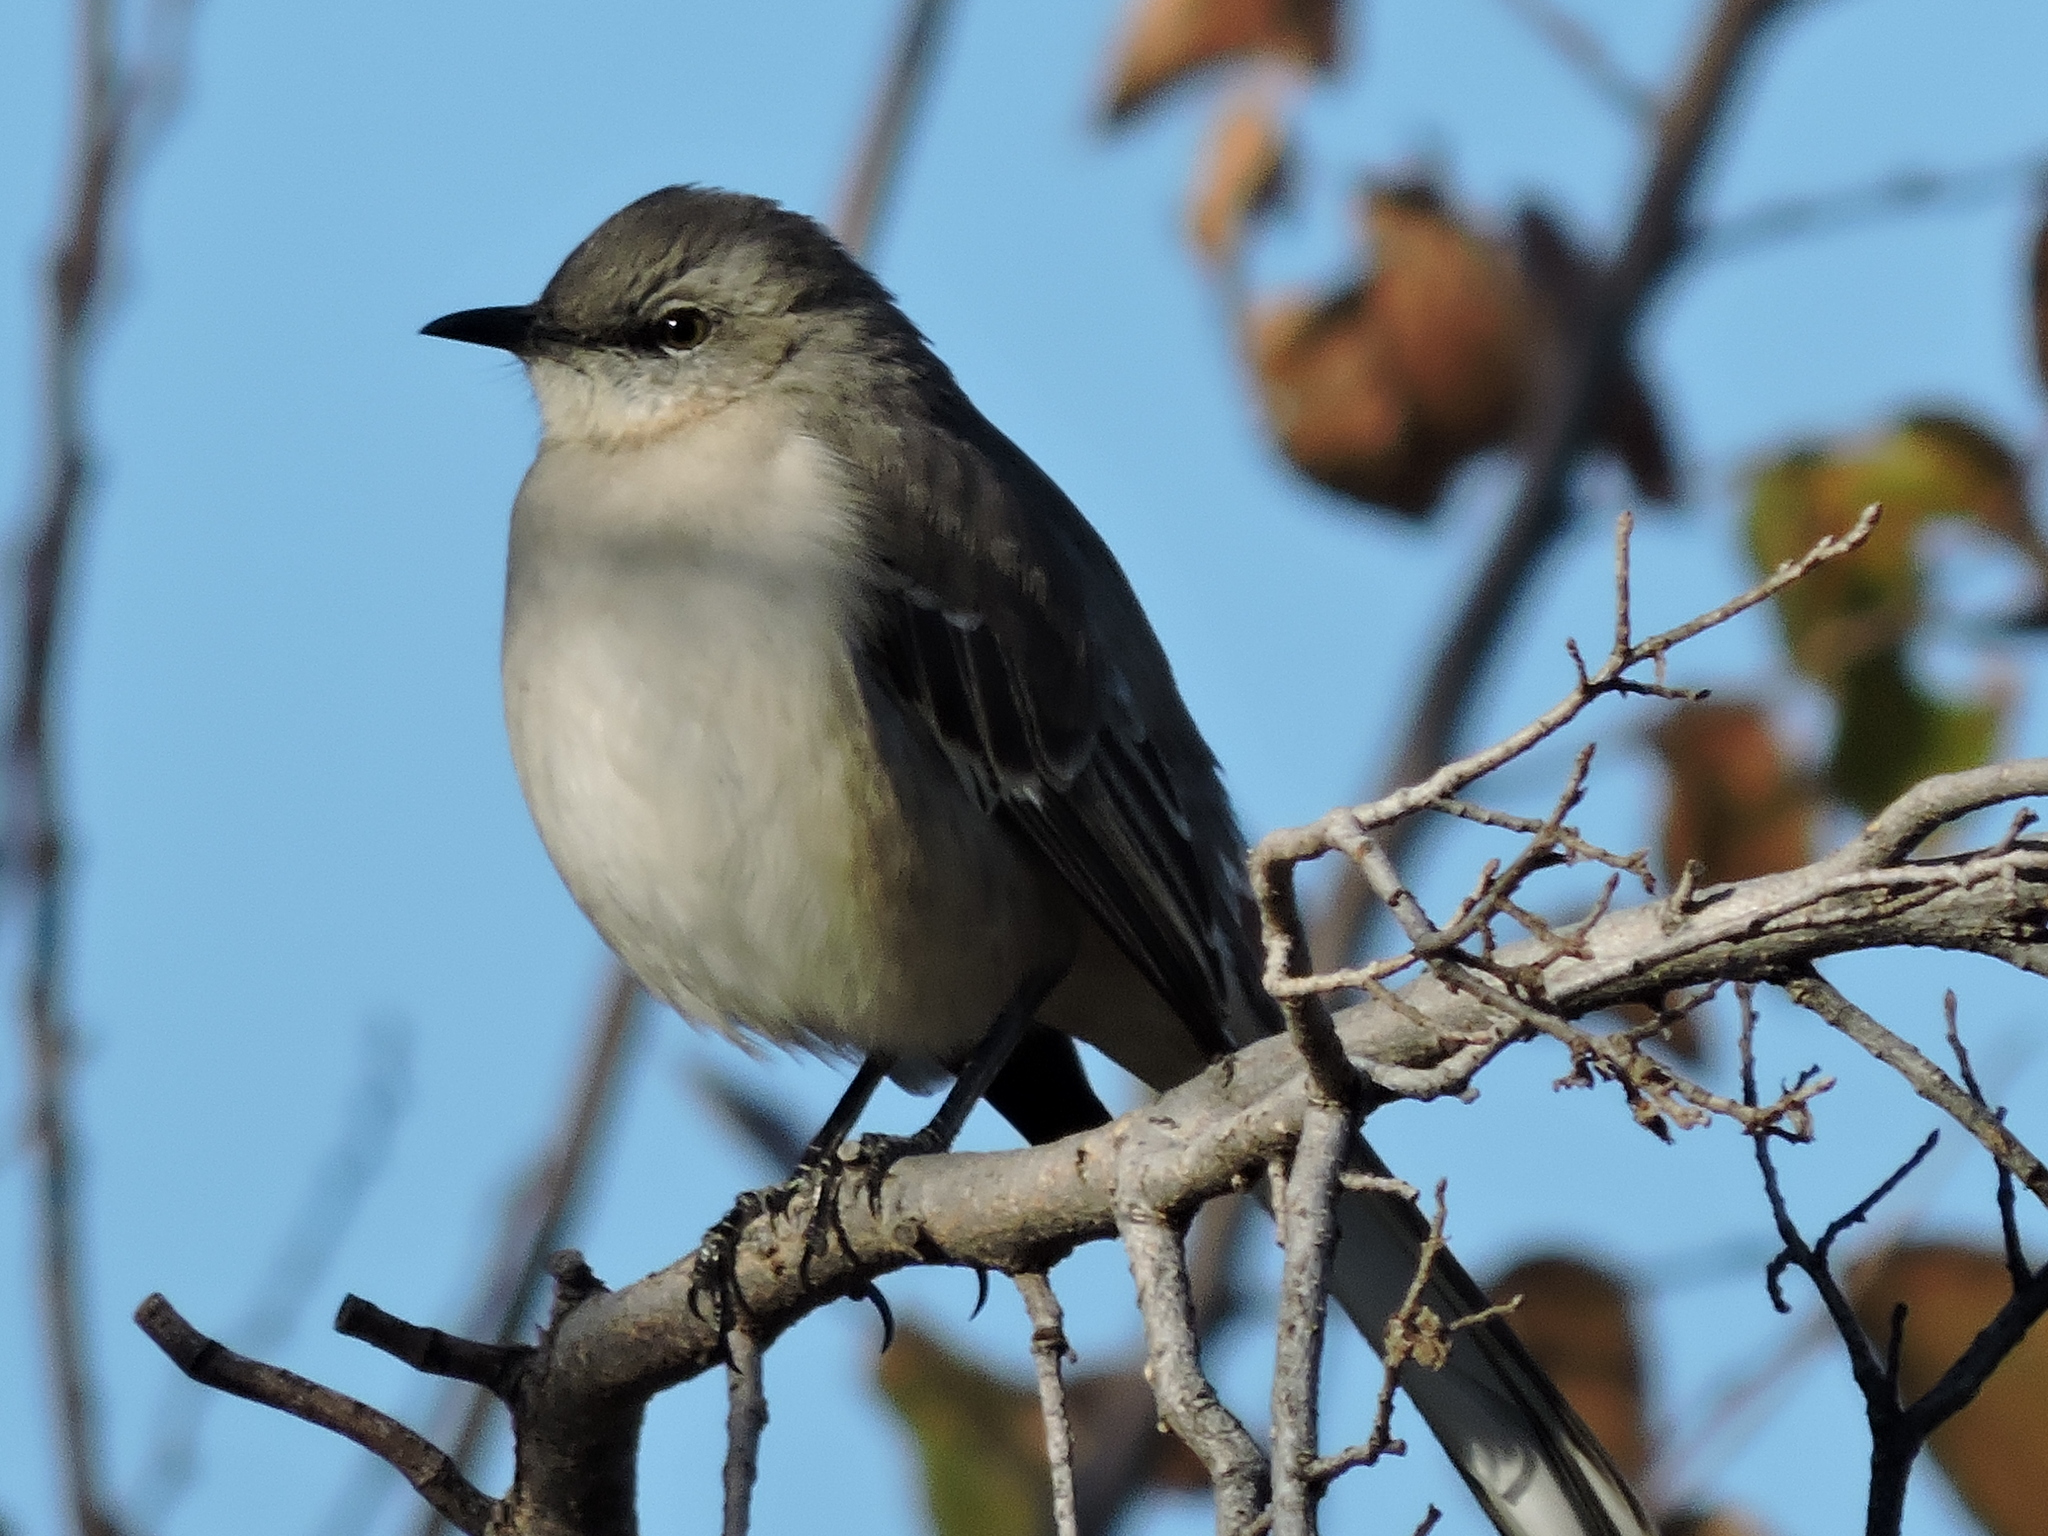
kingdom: Animalia
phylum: Chordata
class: Aves
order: Passeriformes
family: Mimidae
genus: Mimus
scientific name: Mimus polyglottos
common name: Northern mockingbird
